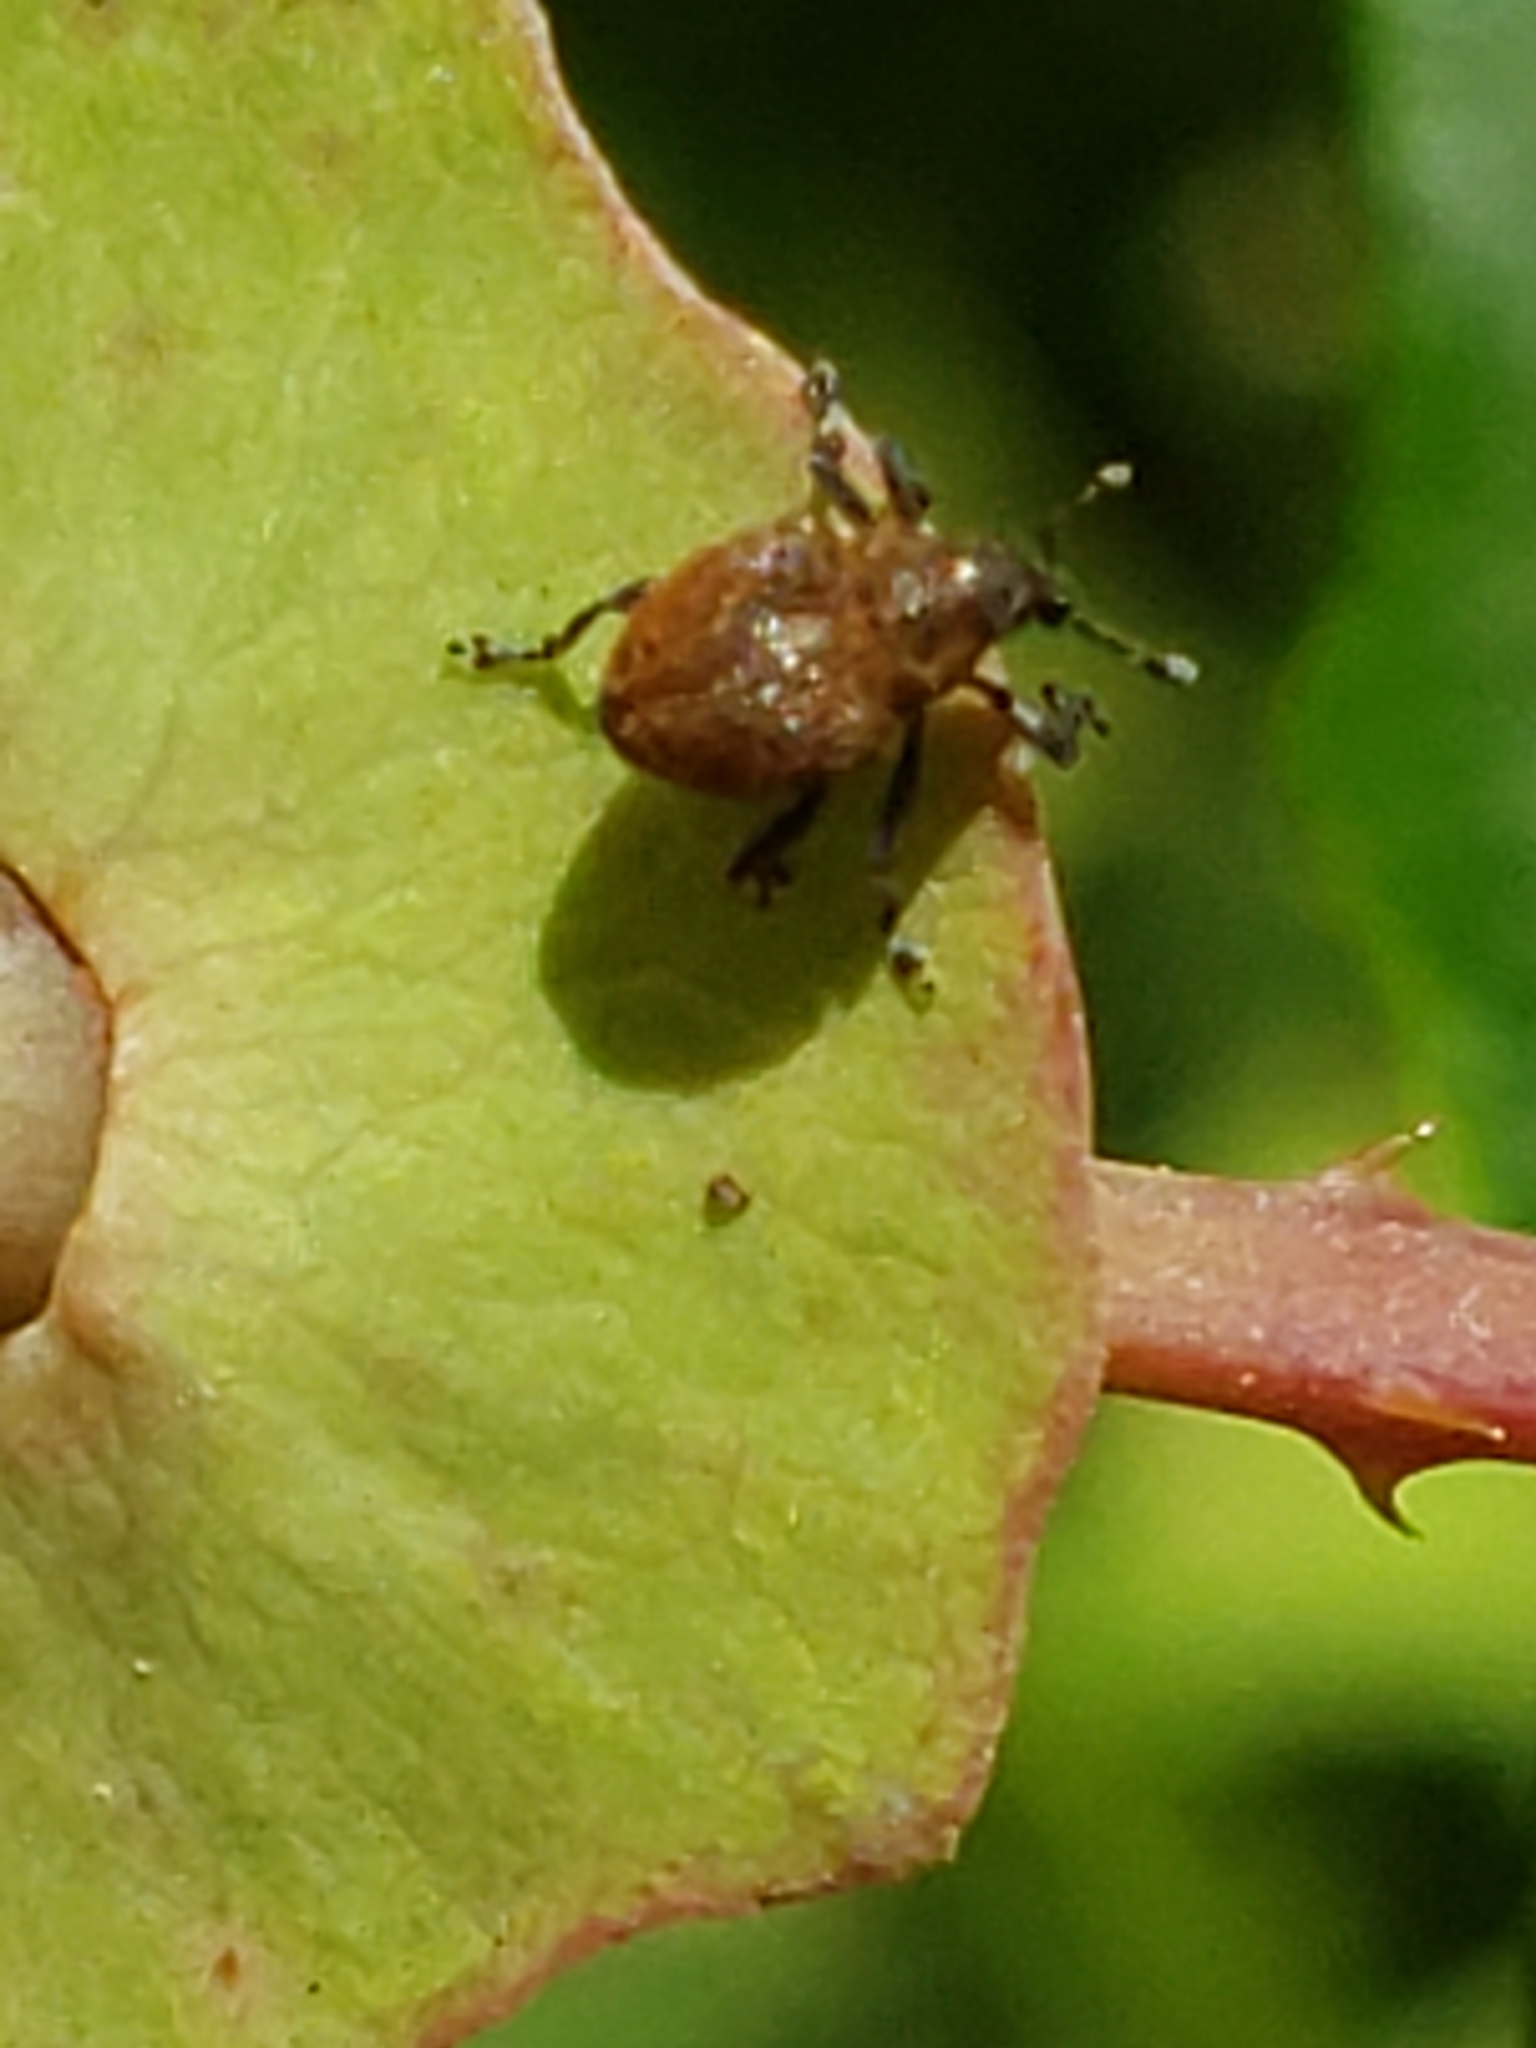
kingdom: Animalia
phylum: Arthropoda
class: Insecta
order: Coleoptera
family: Curculionidae
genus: Rhinoncomimus
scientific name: Rhinoncomimus latipes
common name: Chinese weevil
